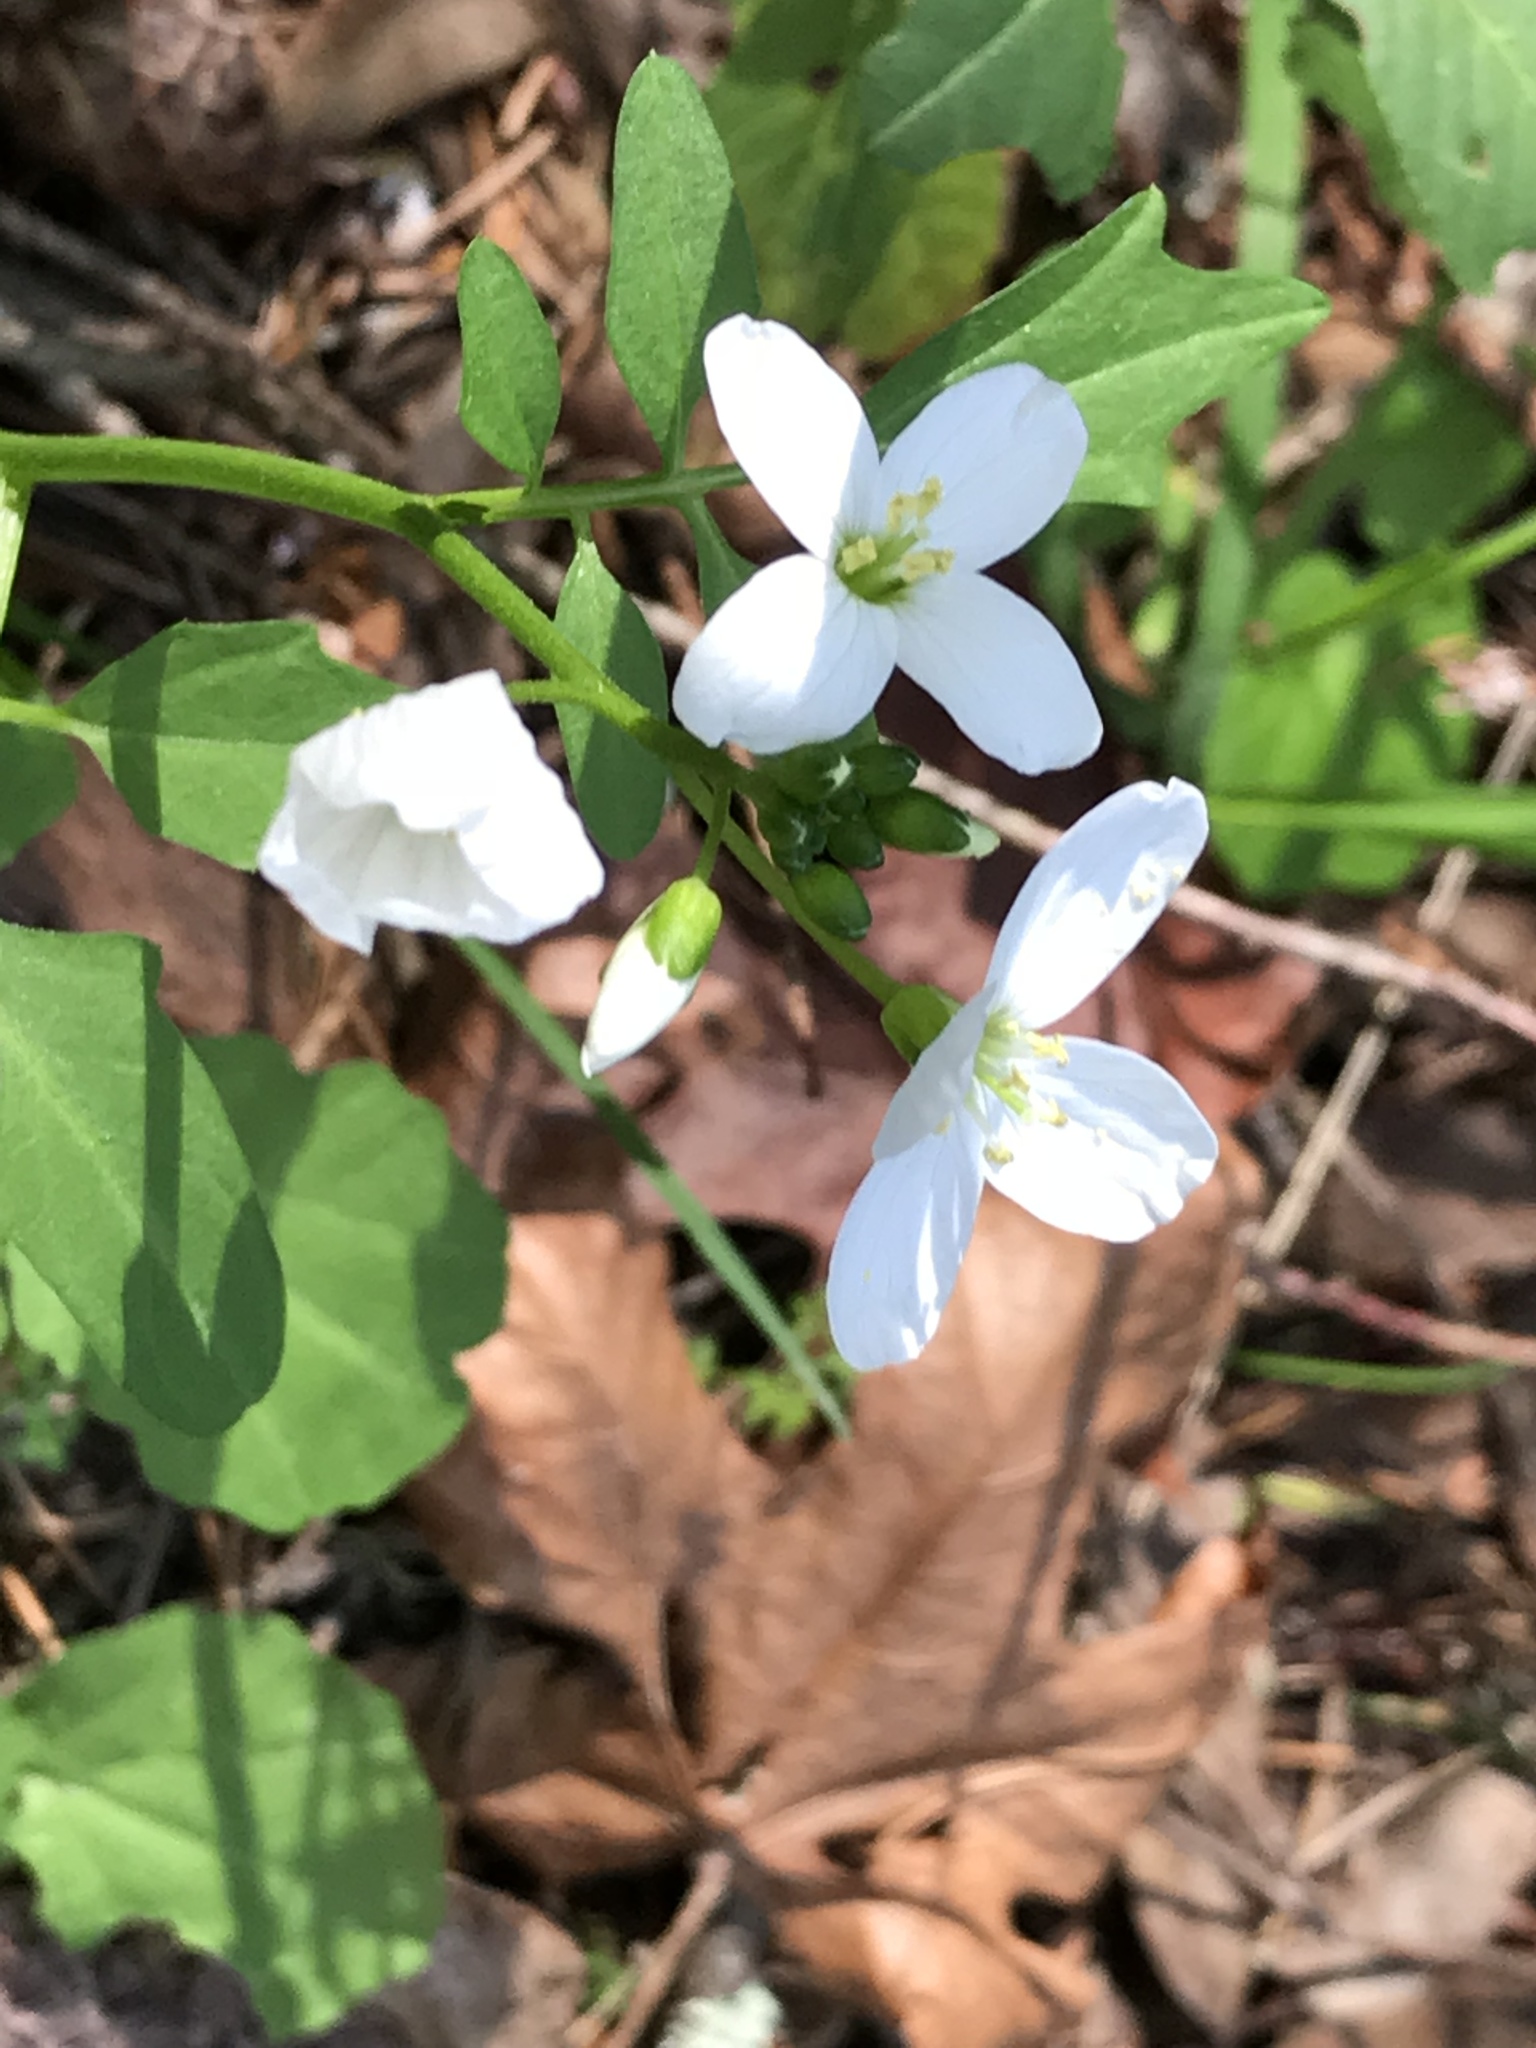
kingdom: Plantae
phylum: Tracheophyta
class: Magnoliopsida
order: Brassicales
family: Brassicaceae
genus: Cardamine
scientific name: Cardamine californica
